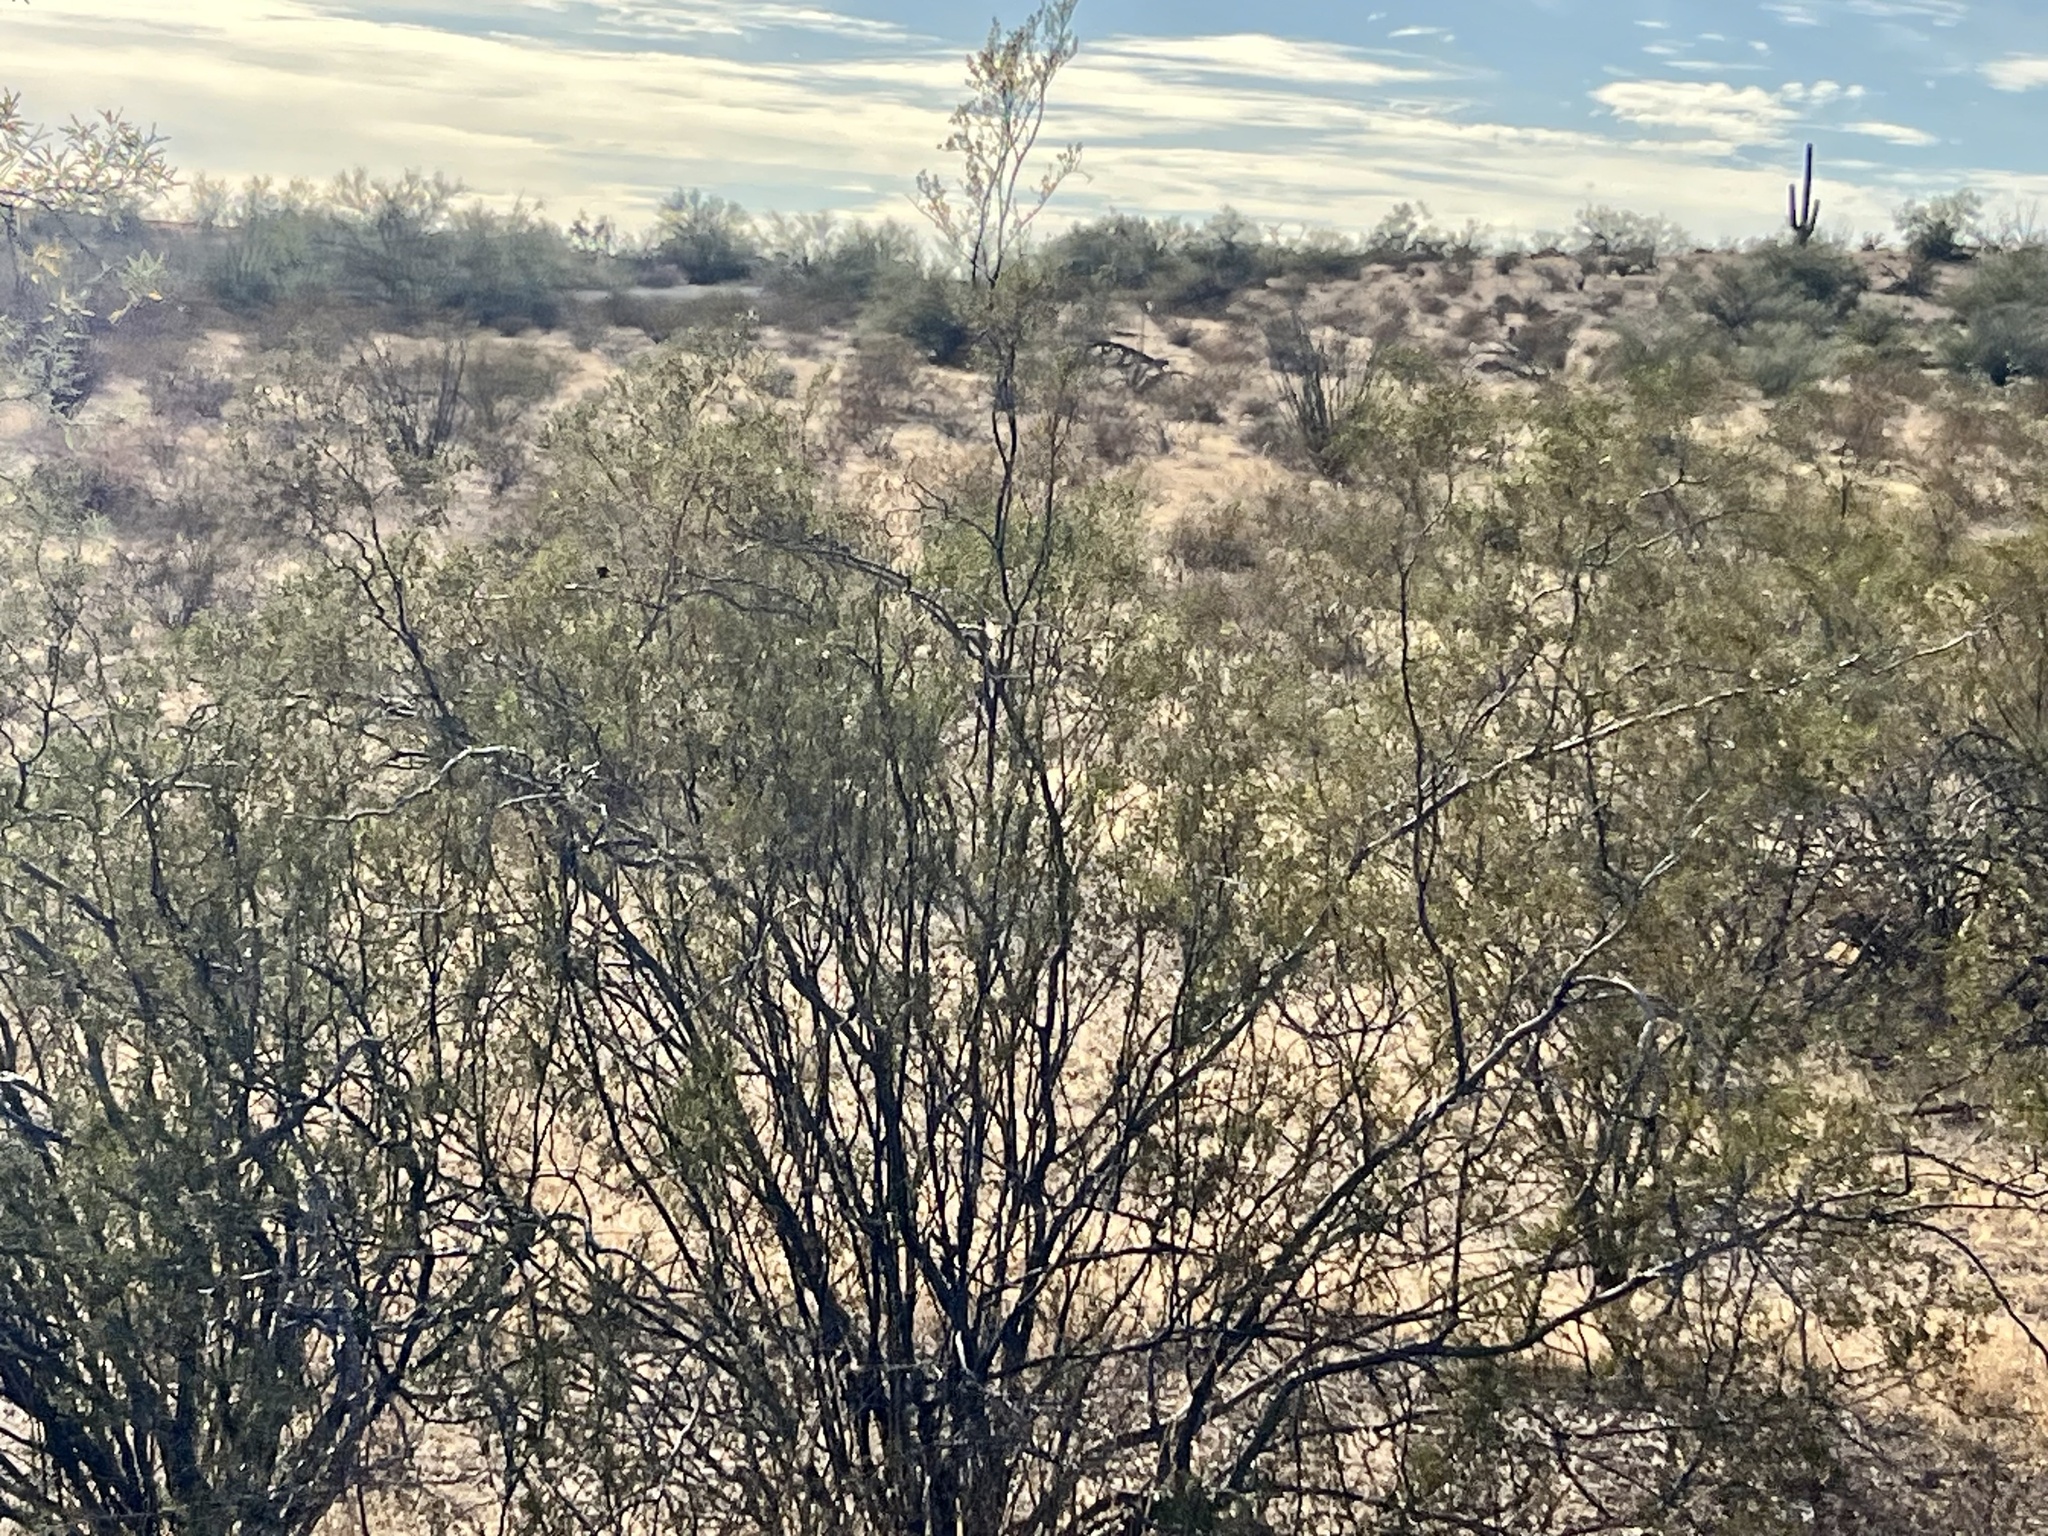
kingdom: Plantae
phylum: Tracheophyta
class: Magnoliopsida
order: Zygophyllales
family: Zygophyllaceae
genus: Larrea
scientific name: Larrea tridentata
